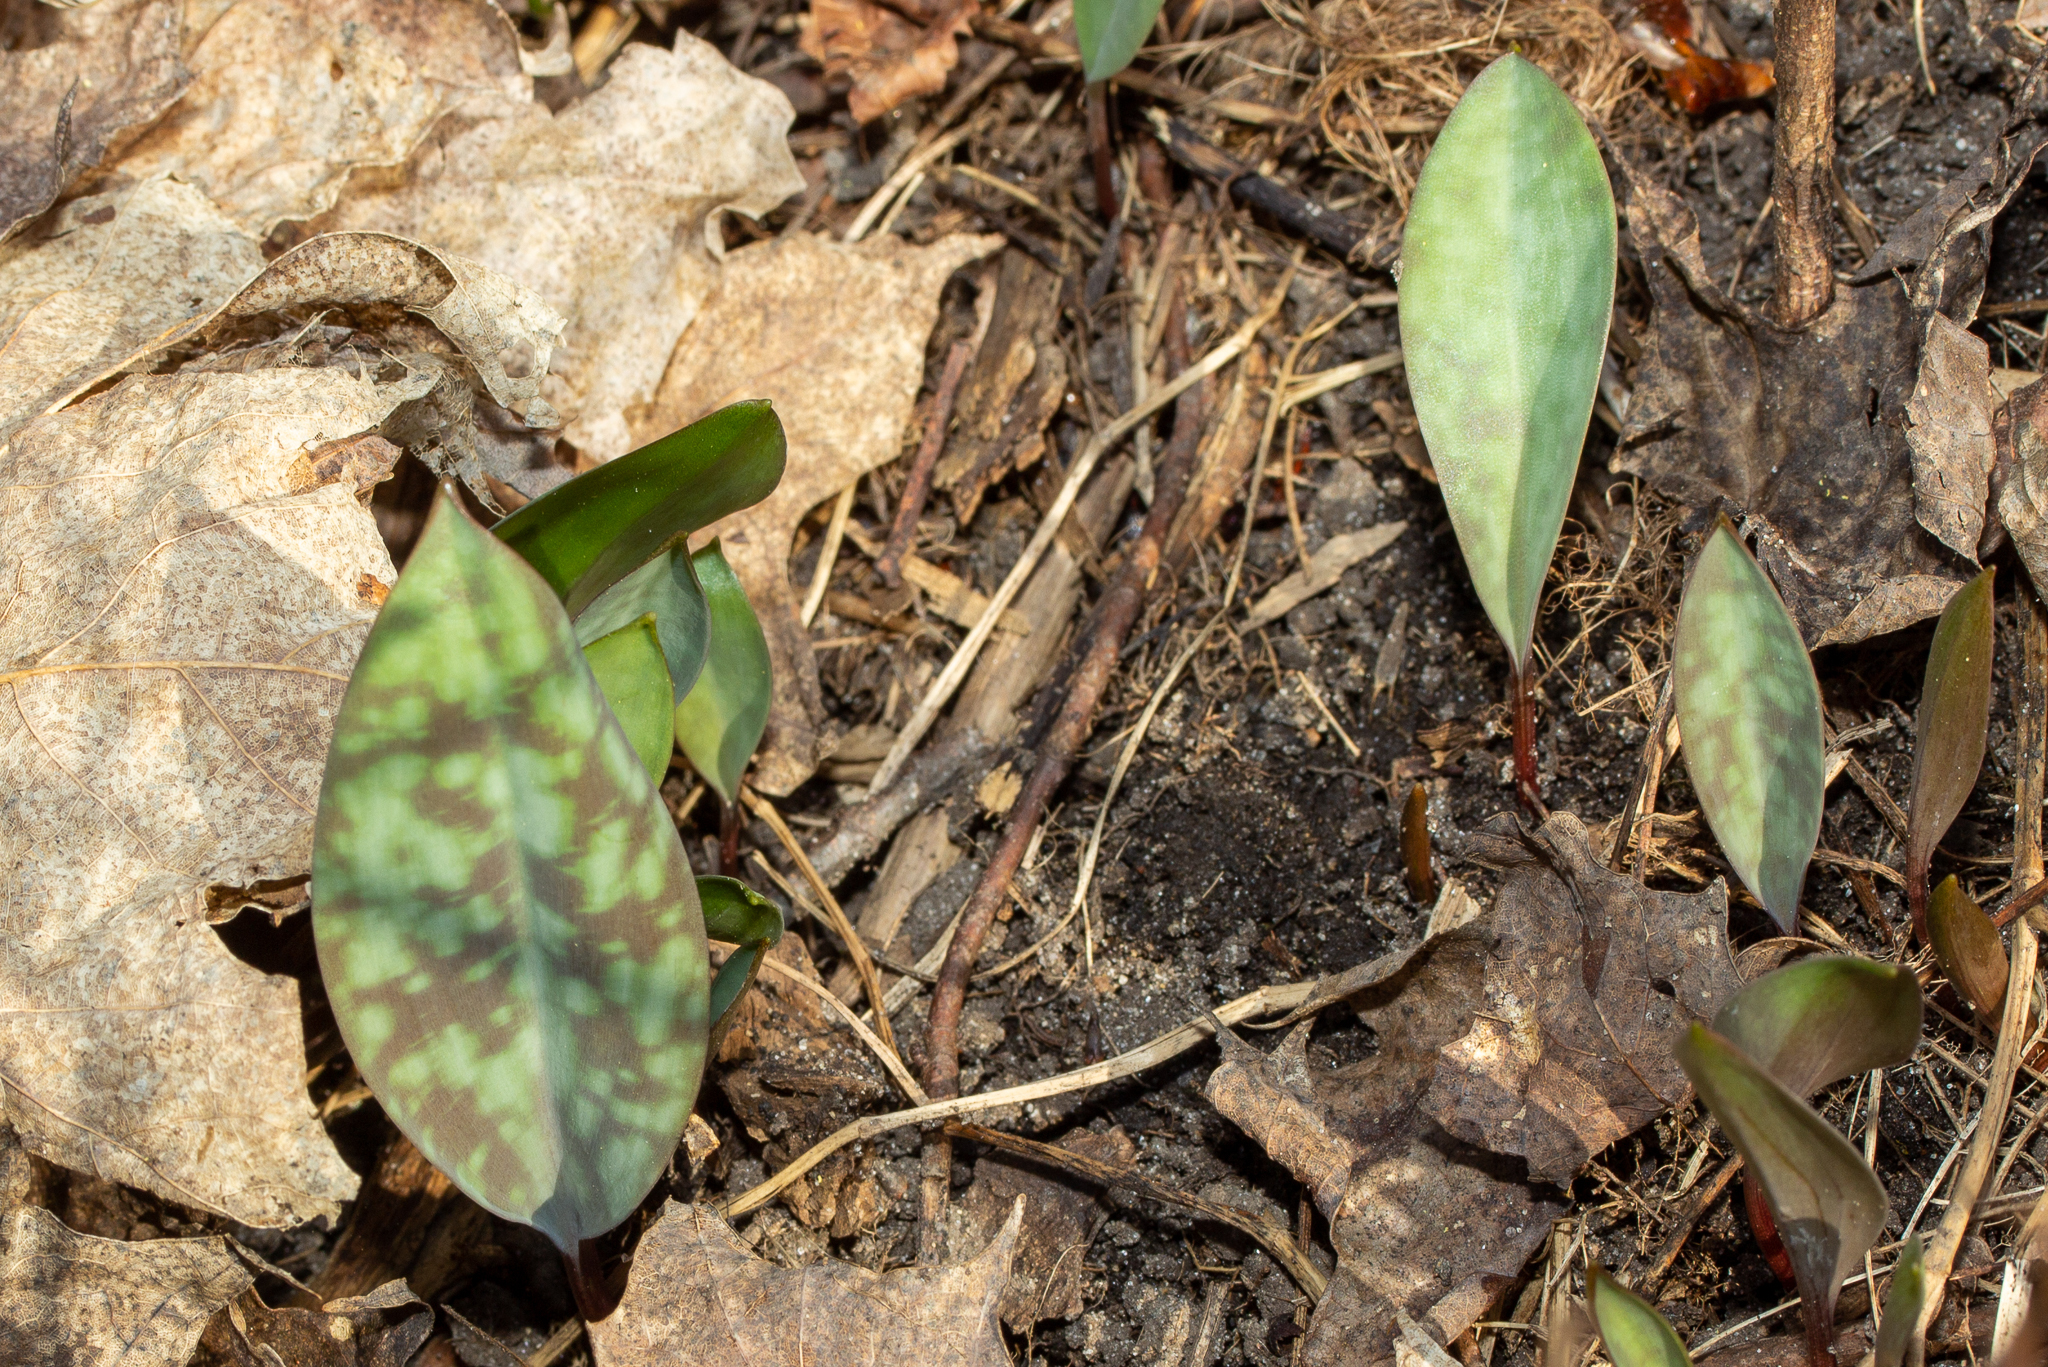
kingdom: Plantae
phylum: Tracheophyta
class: Liliopsida
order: Liliales
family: Liliaceae
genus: Erythronium
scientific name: Erythronium americanum
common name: Yellow adder's-tongue
